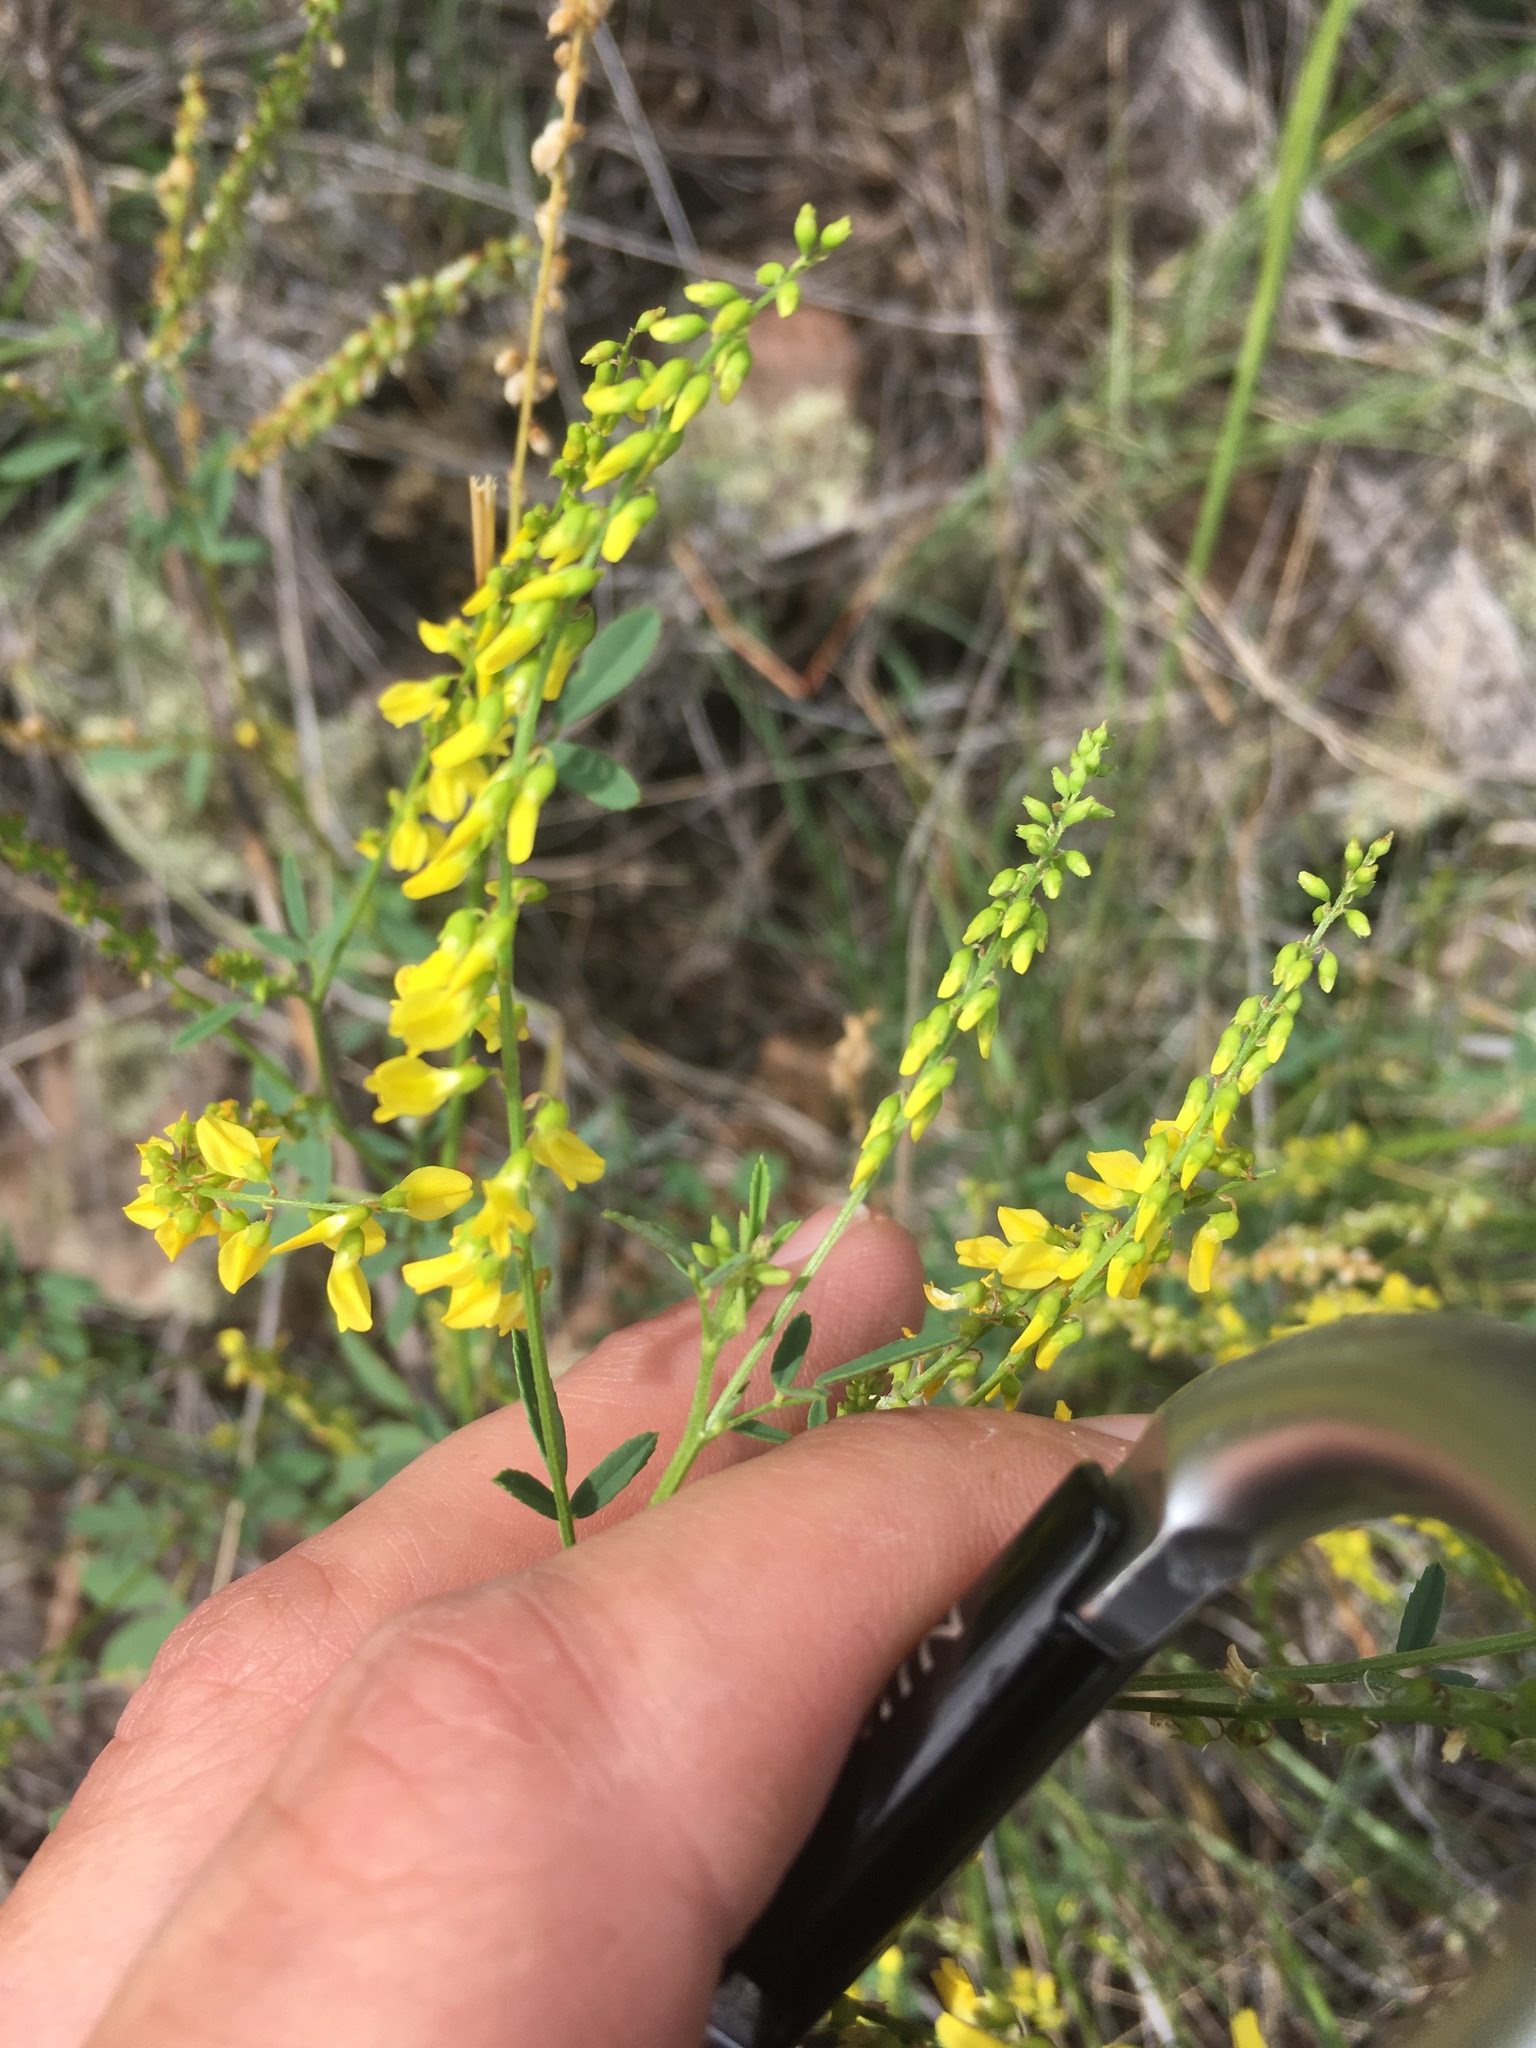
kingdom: Plantae
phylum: Tracheophyta
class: Magnoliopsida
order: Fabales
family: Fabaceae
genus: Melilotus
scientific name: Melilotus officinalis
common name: Sweetclover
